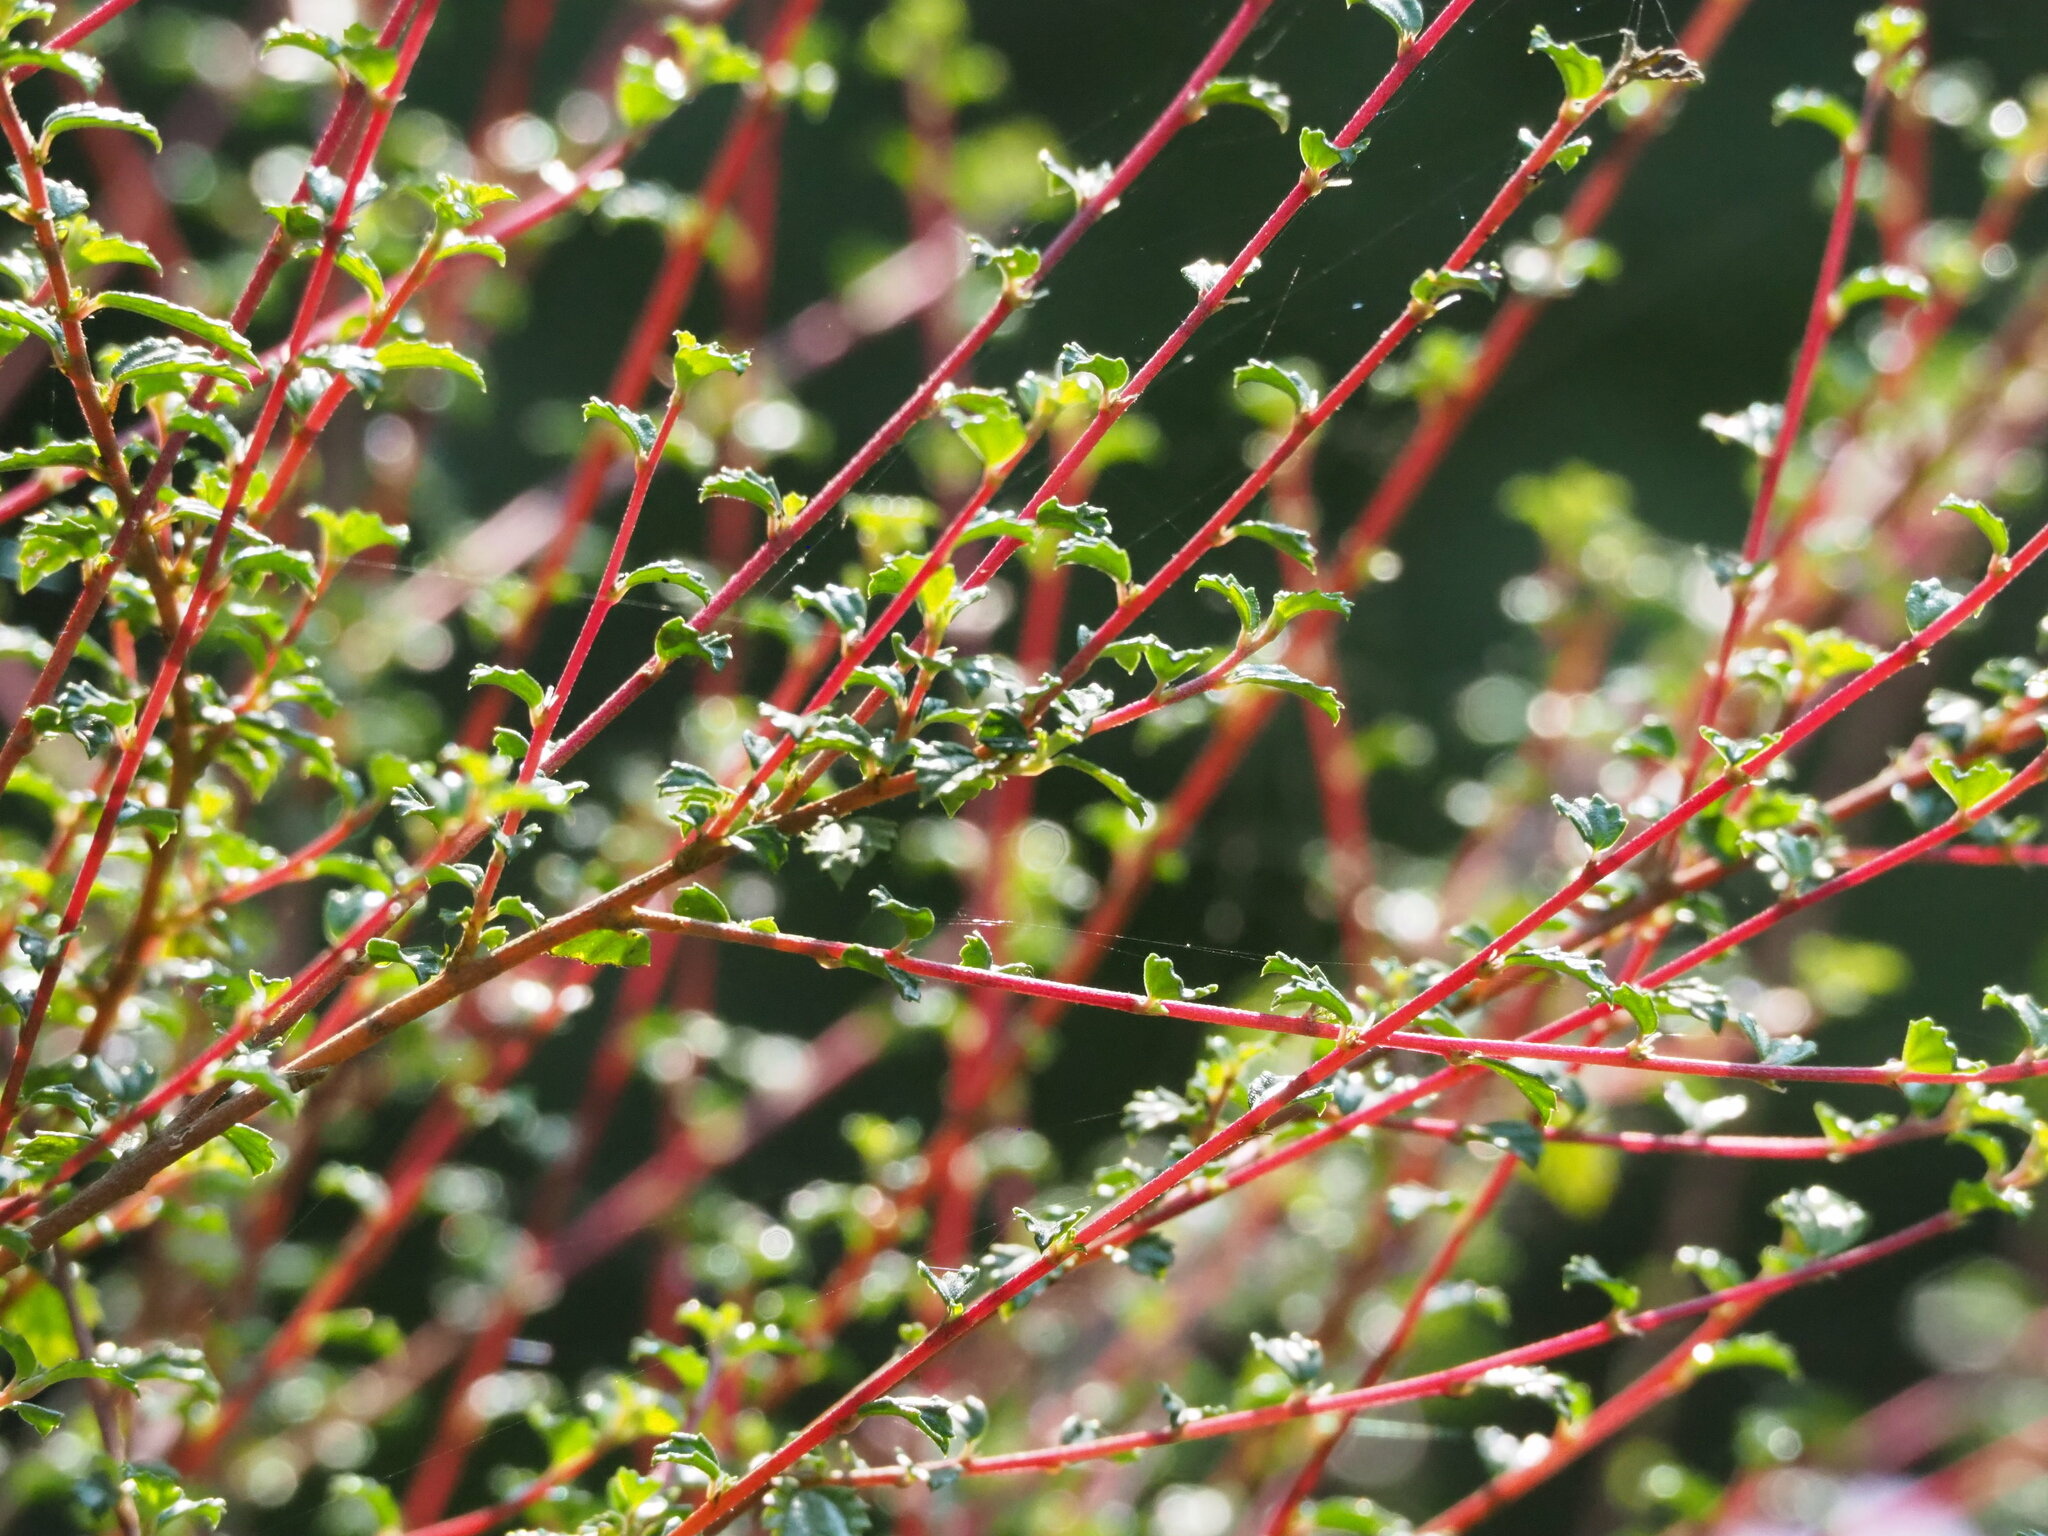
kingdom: Plantae
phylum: Tracheophyta
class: Magnoliopsida
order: Rosales
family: Urticaceae
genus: Pouzolzia
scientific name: Pouzolzia sanguinea
